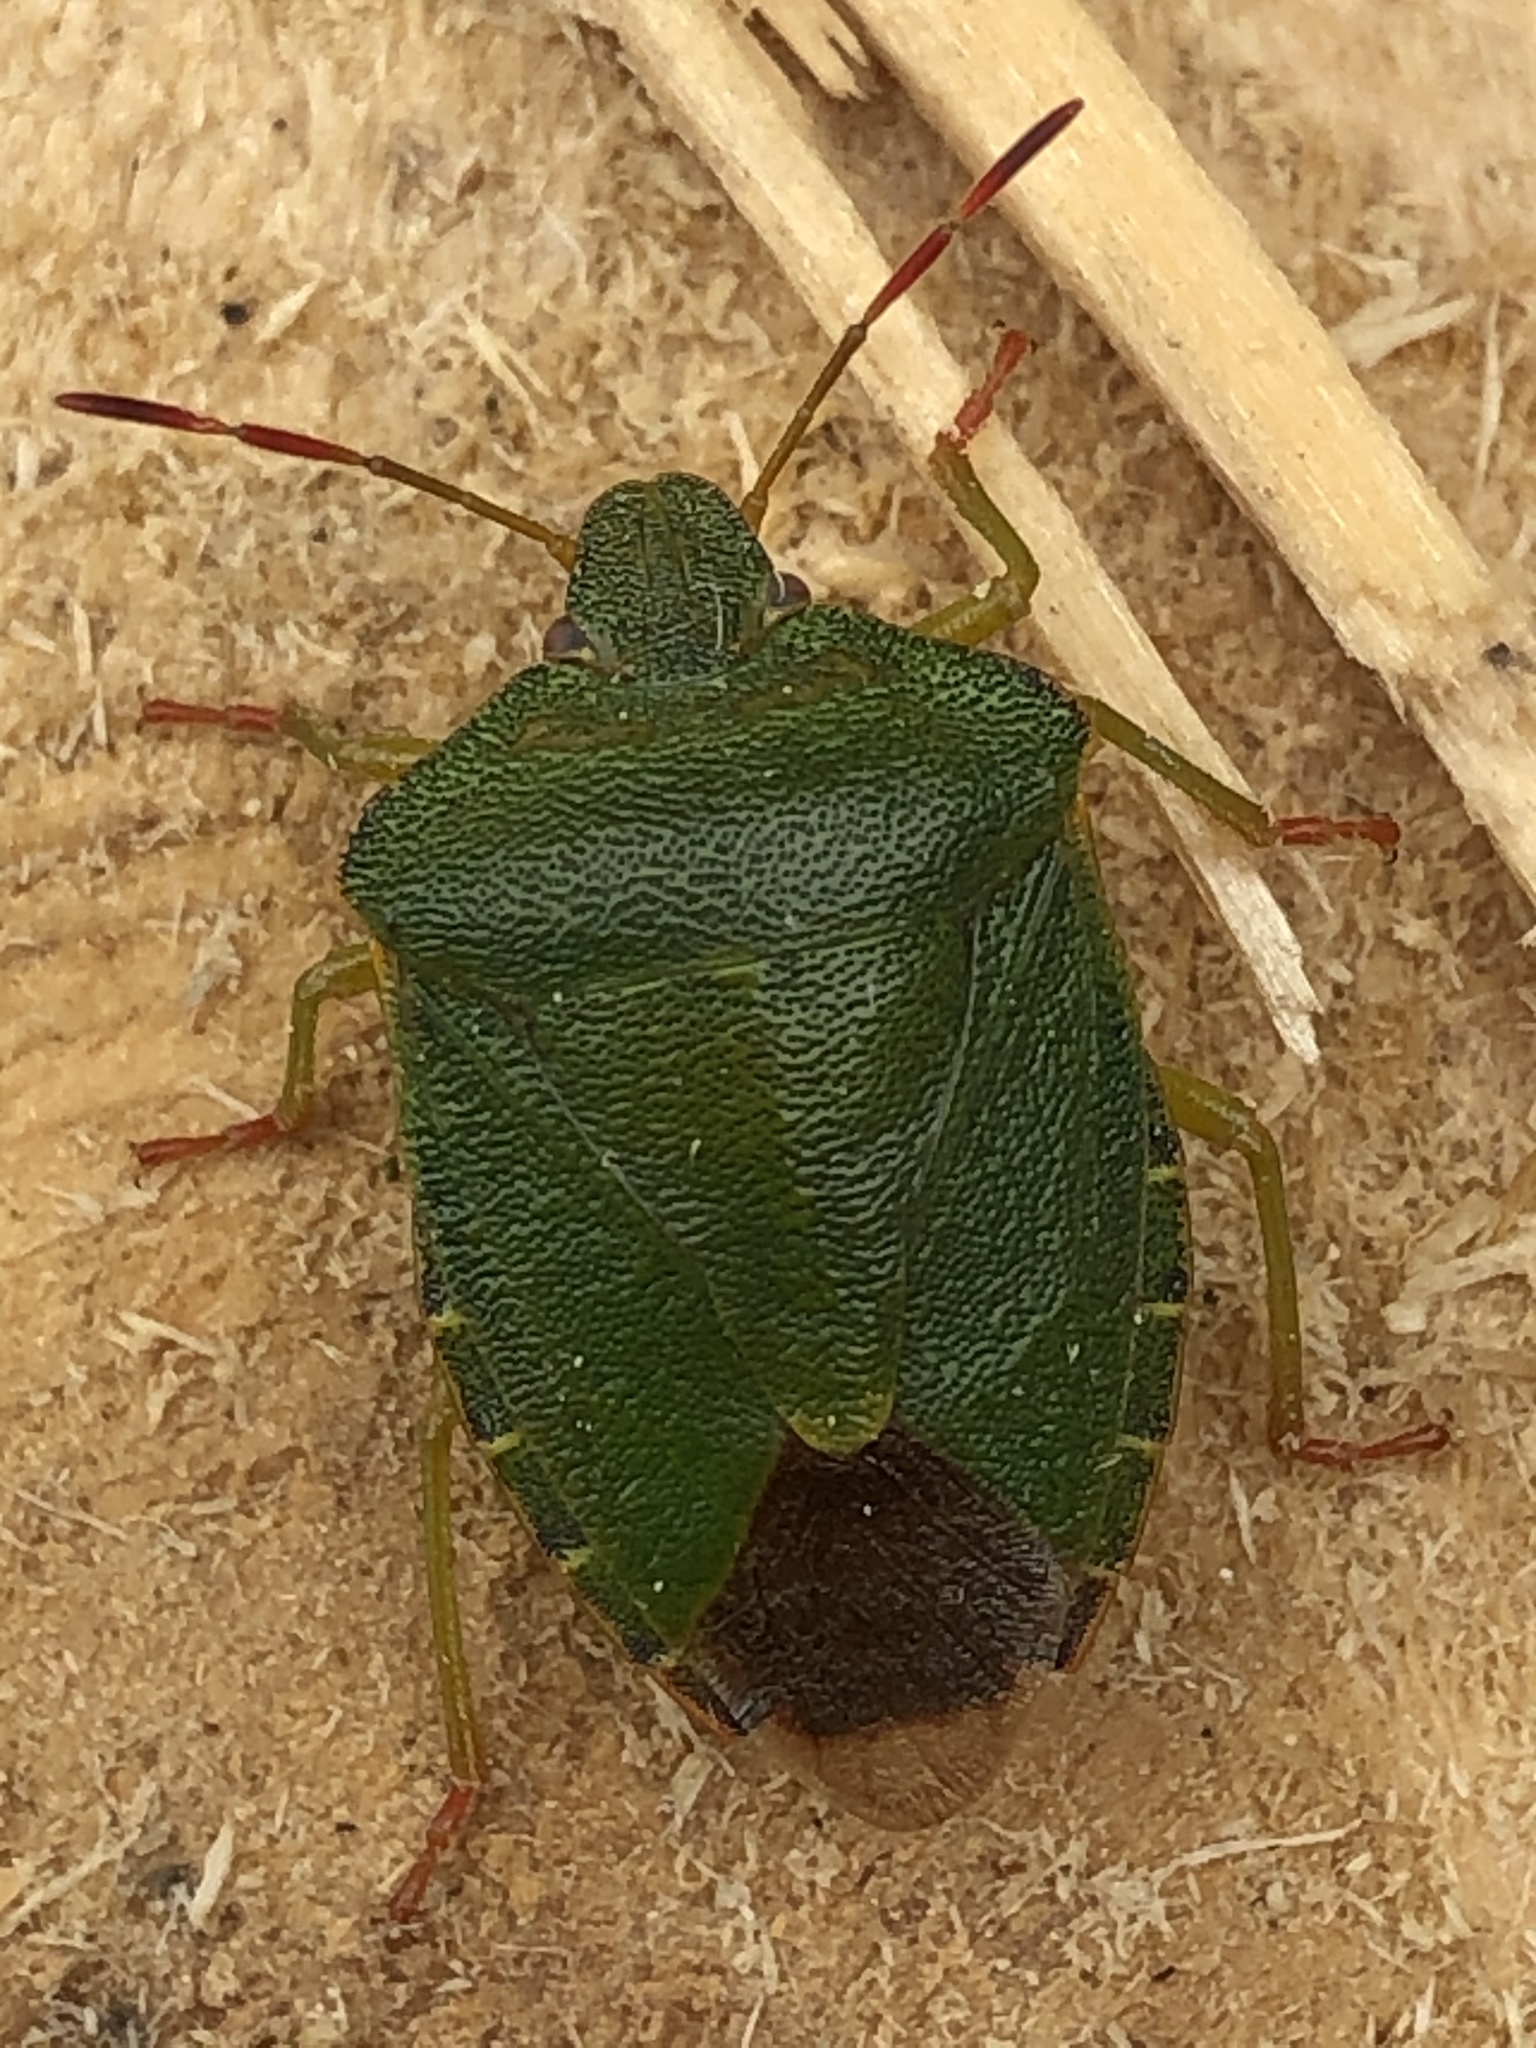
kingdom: Animalia
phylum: Arthropoda
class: Insecta
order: Hemiptera
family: Pentatomidae
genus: Palomena
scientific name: Palomena prasina
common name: Green shieldbug
